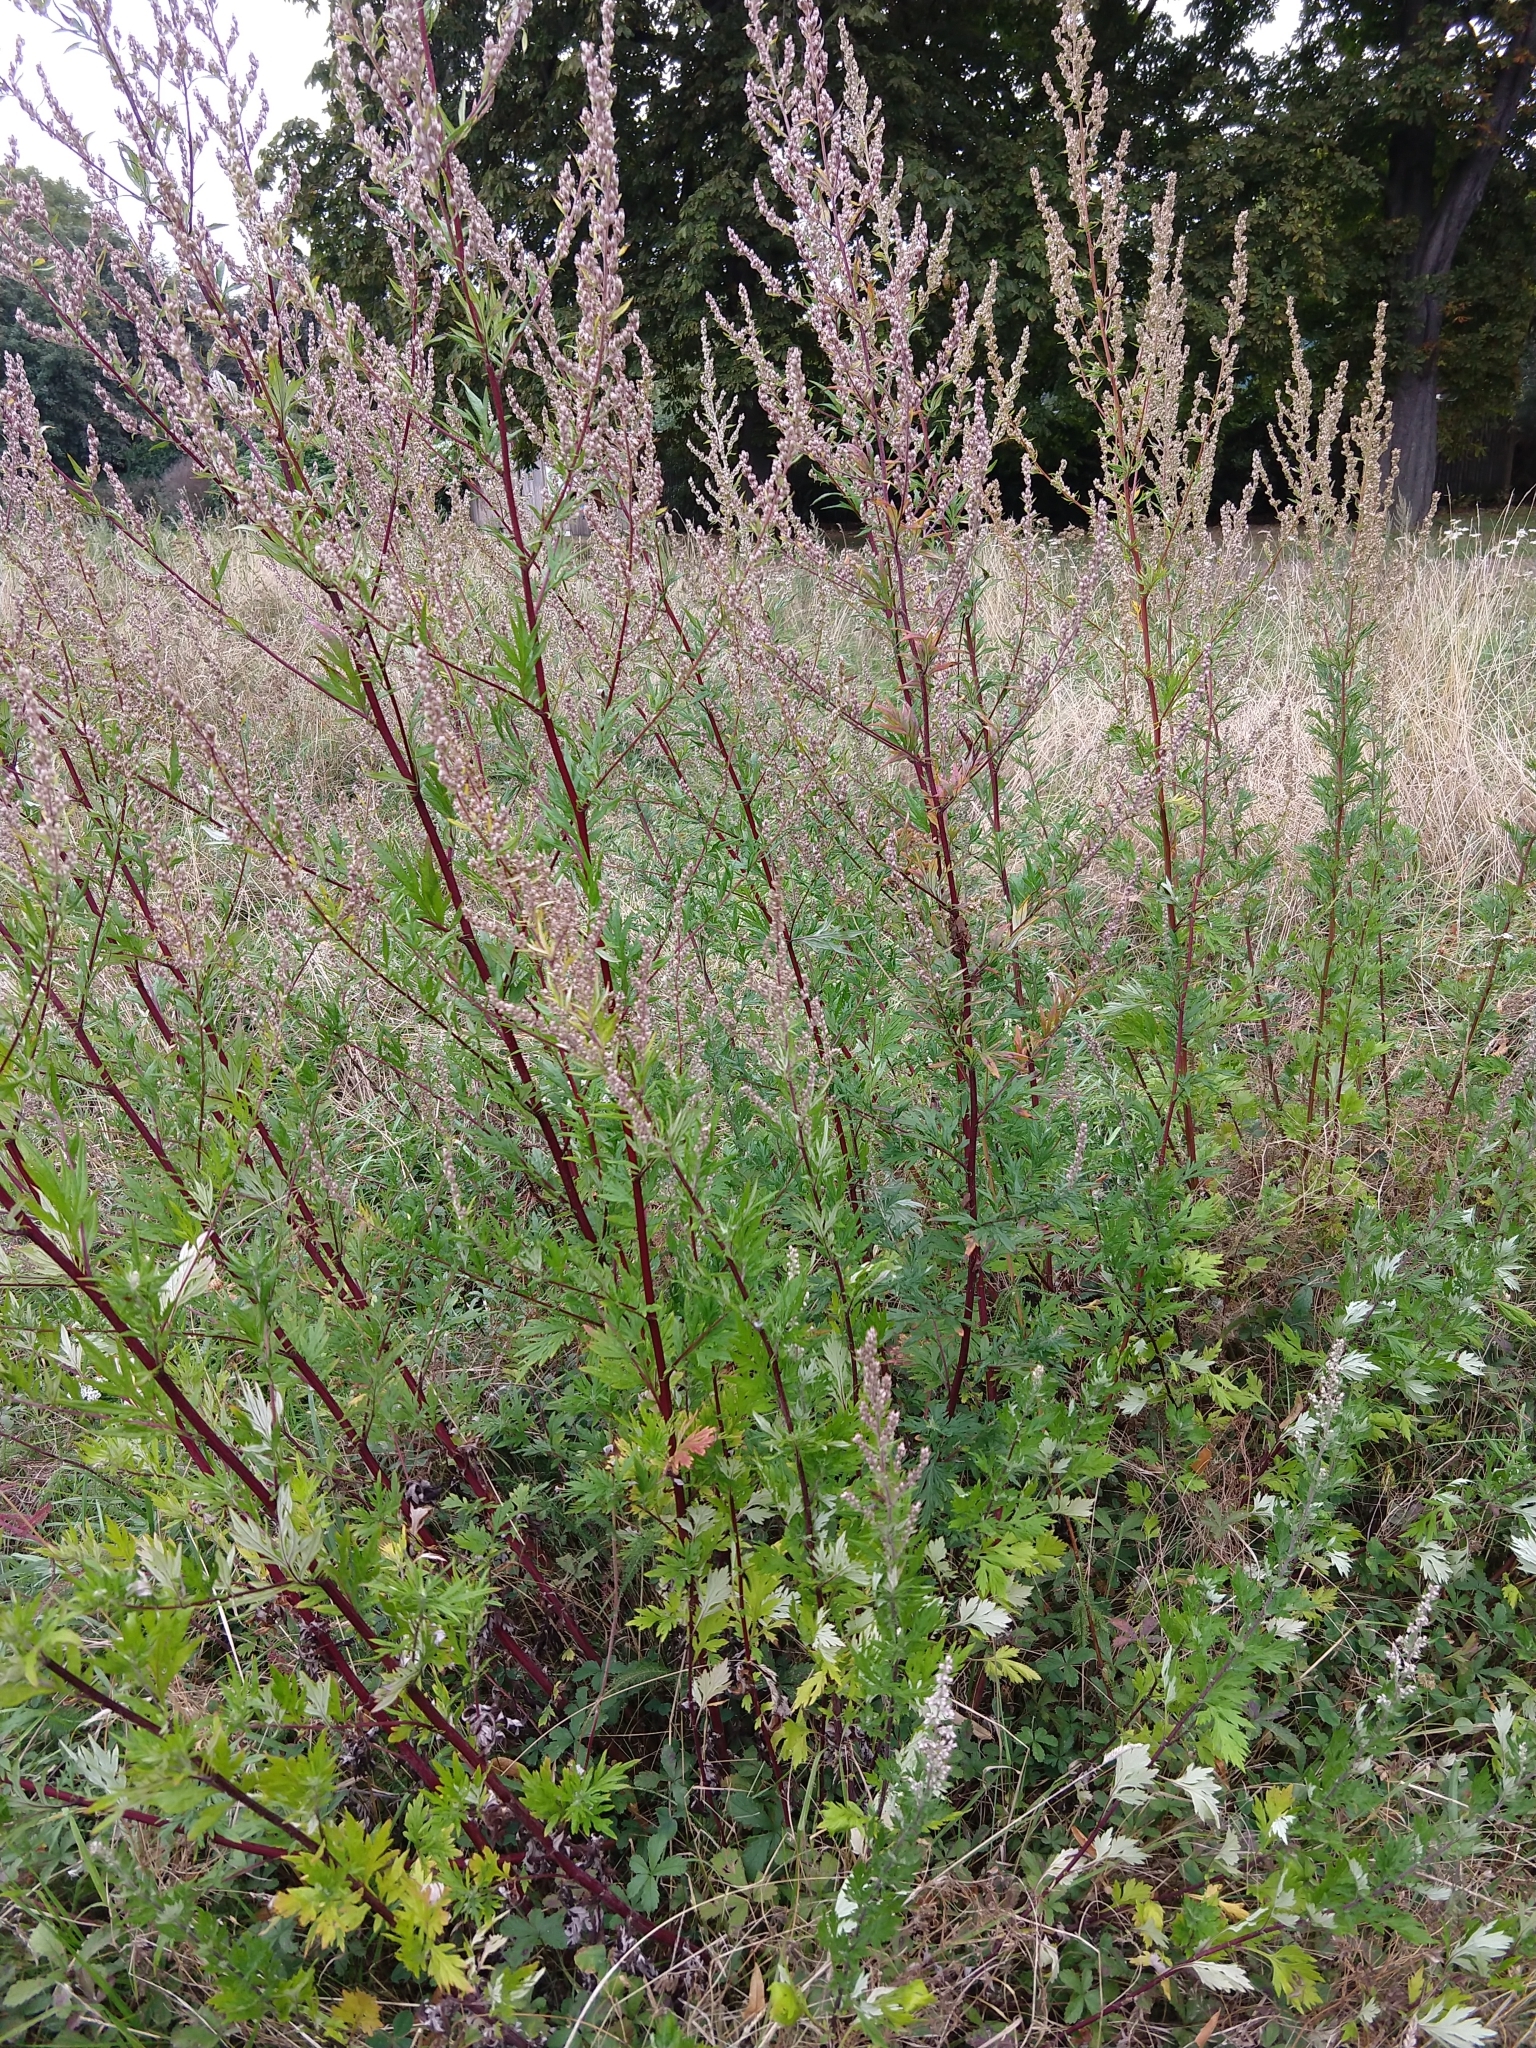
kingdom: Plantae
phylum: Tracheophyta
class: Magnoliopsida
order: Asterales
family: Asteraceae
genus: Artemisia
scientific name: Artemisia vulgaris
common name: Mugwort
